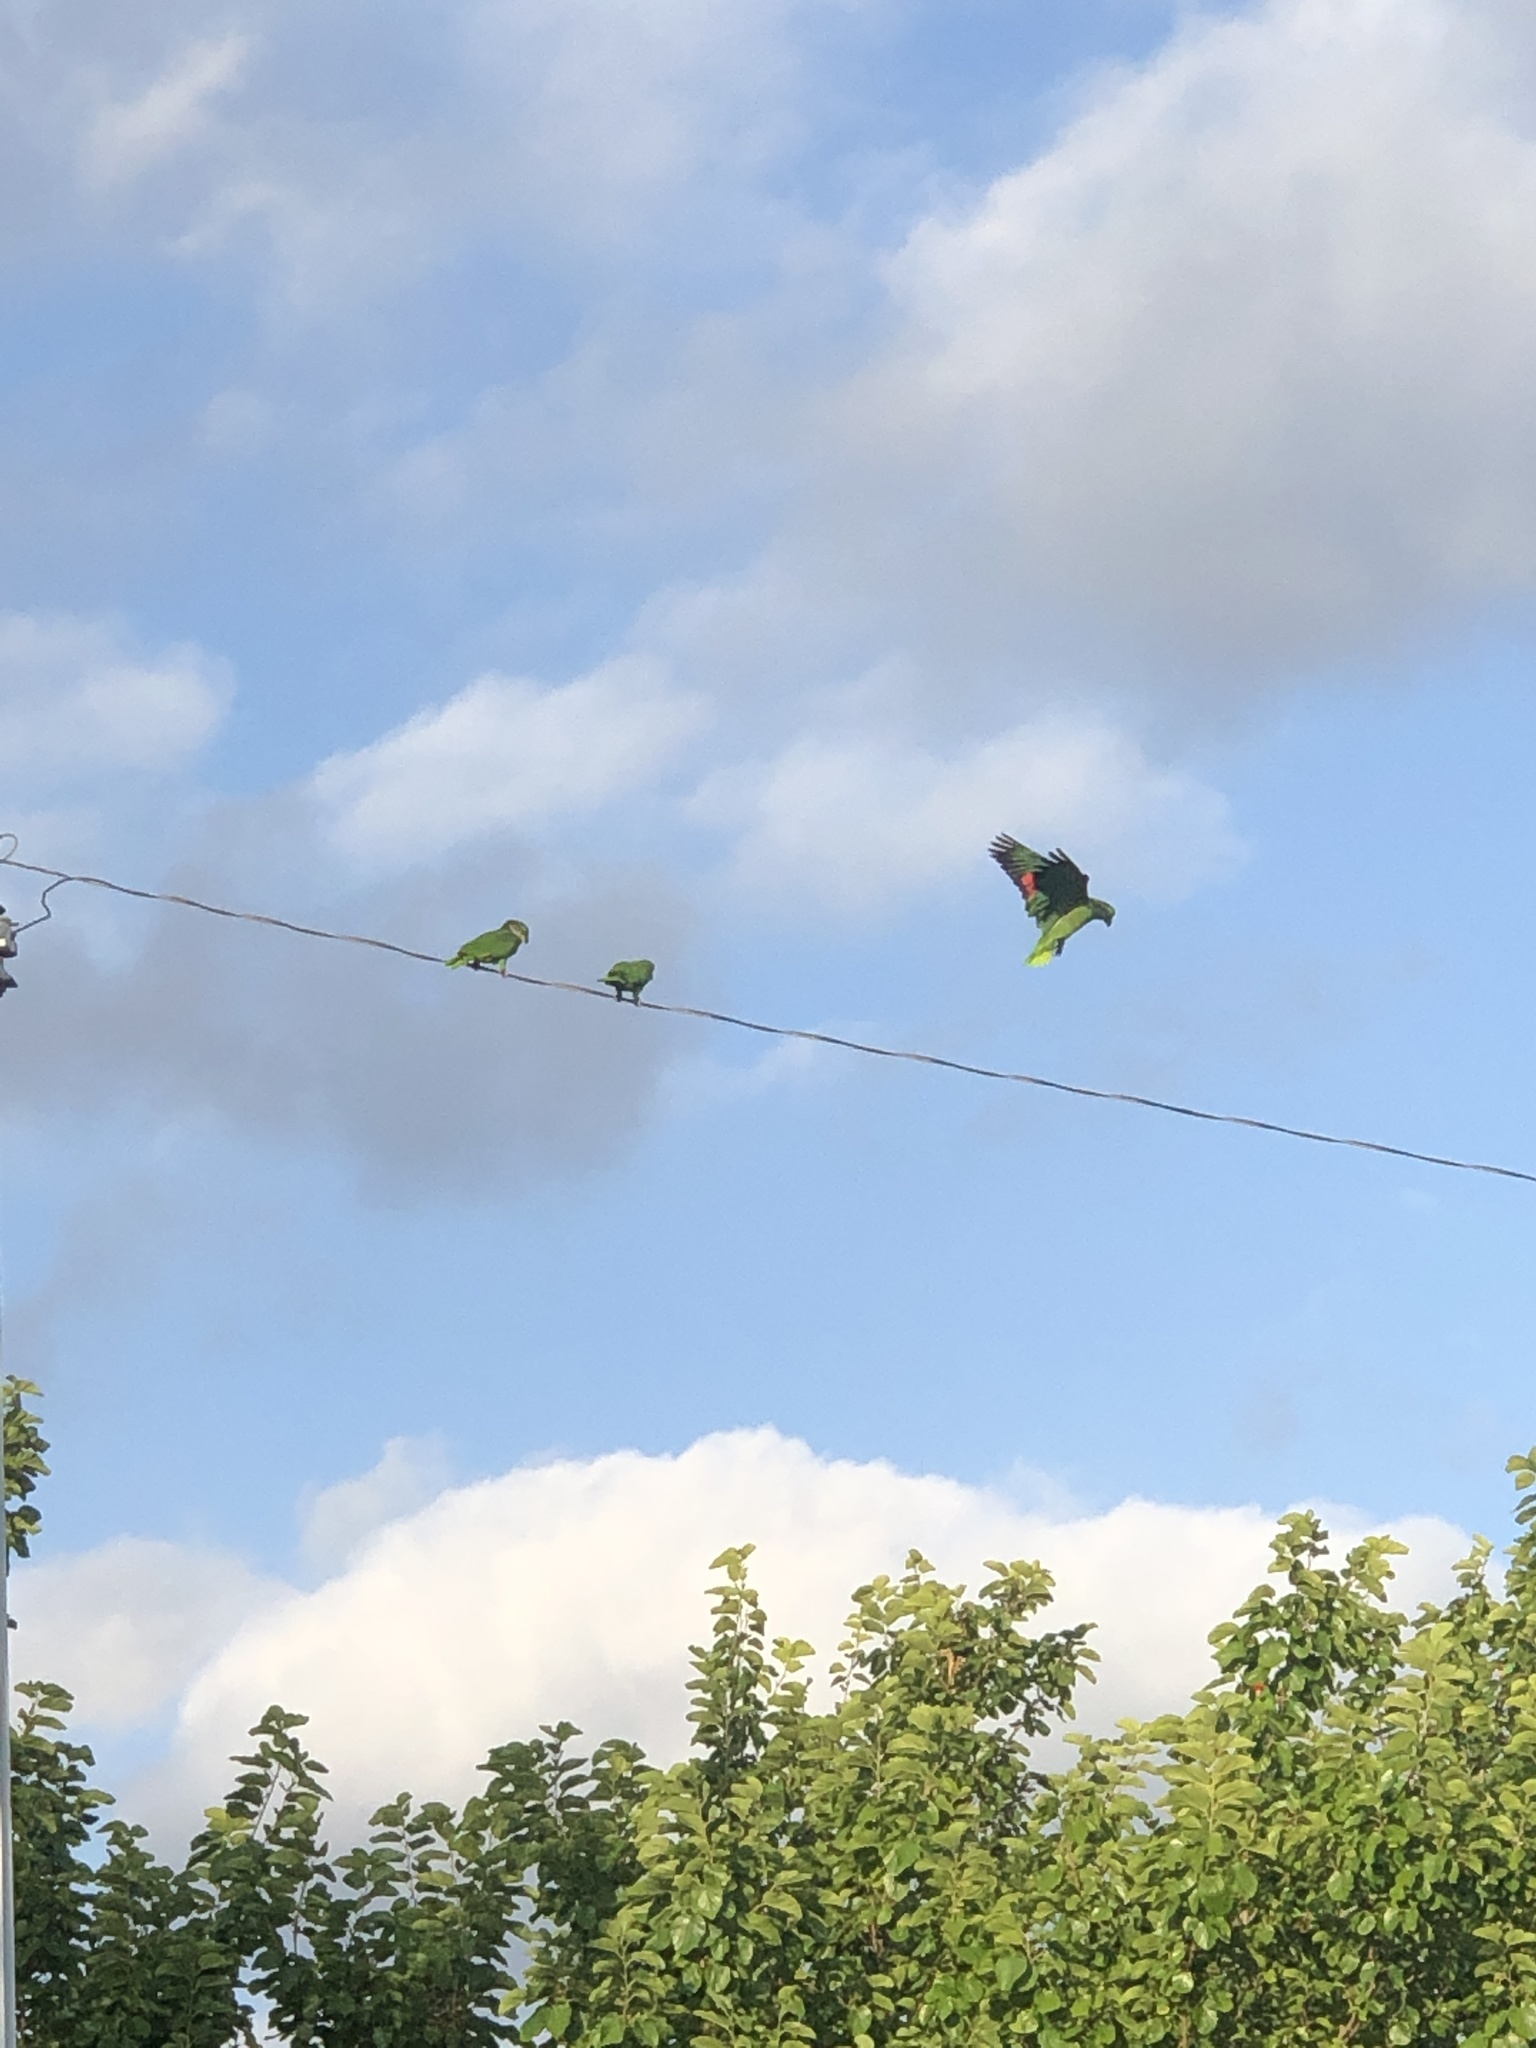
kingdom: Animalia
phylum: Chordata
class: Aves
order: Psittaciformes
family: Psittacidae
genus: Amazona
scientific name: Amazona viridigenalis
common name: Red-crowned amazon
